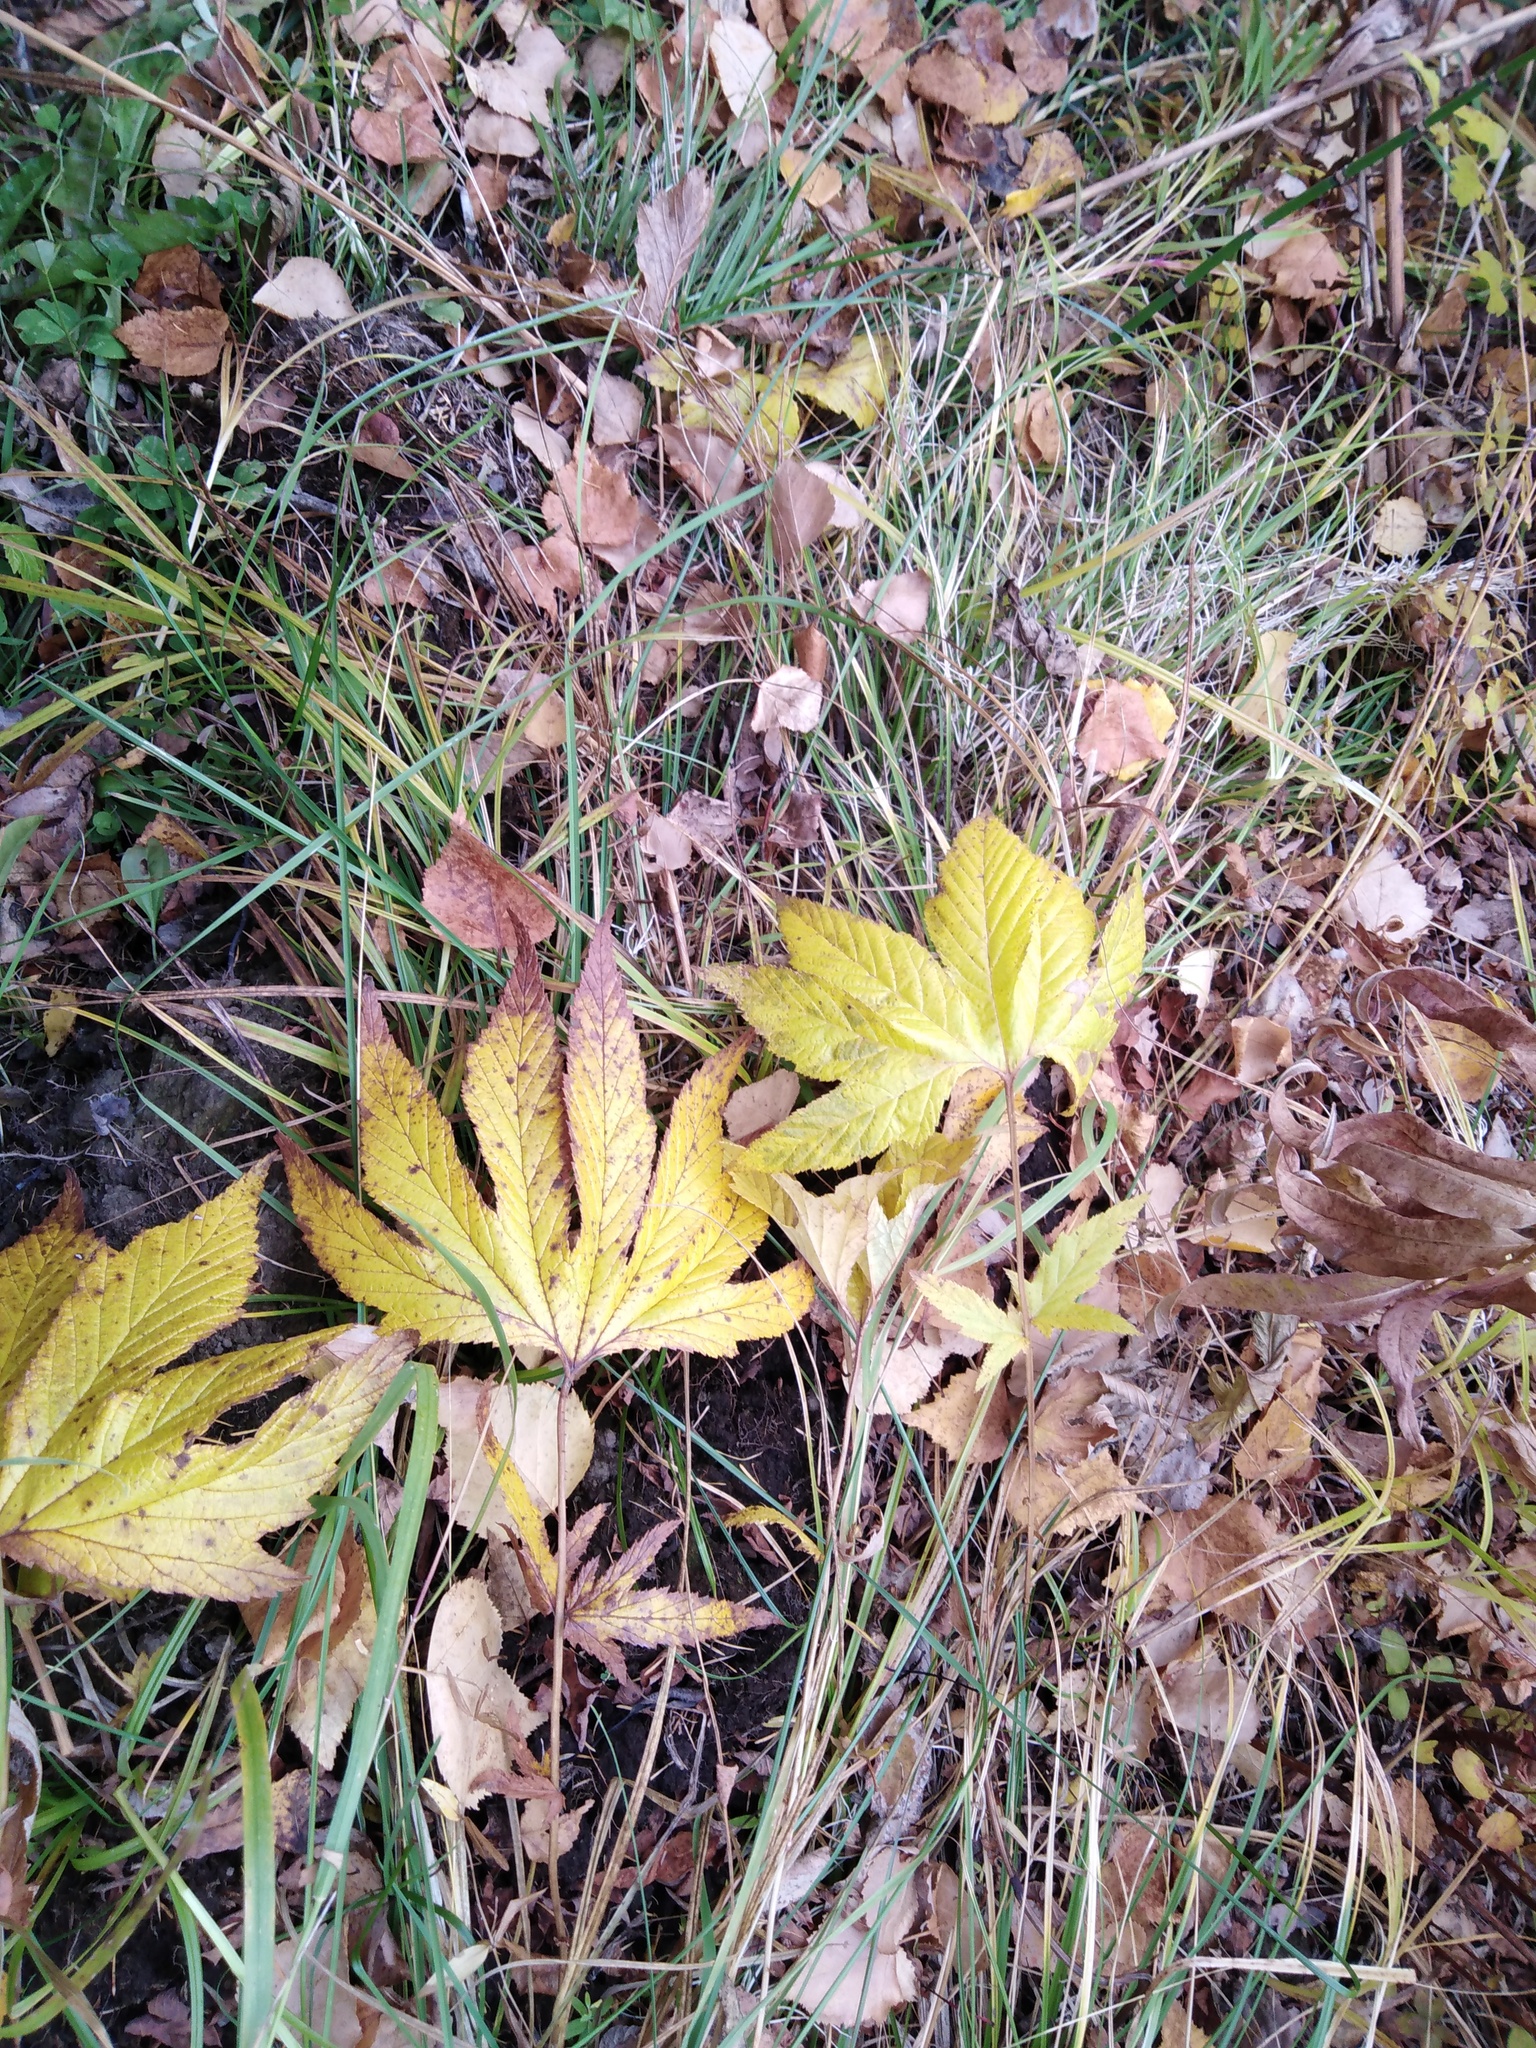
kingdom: Plantae
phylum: Tracheophyta
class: Magnoliopsida
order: Rosales
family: Rosaceae
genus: Filipendula
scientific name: Filipendula digitata
